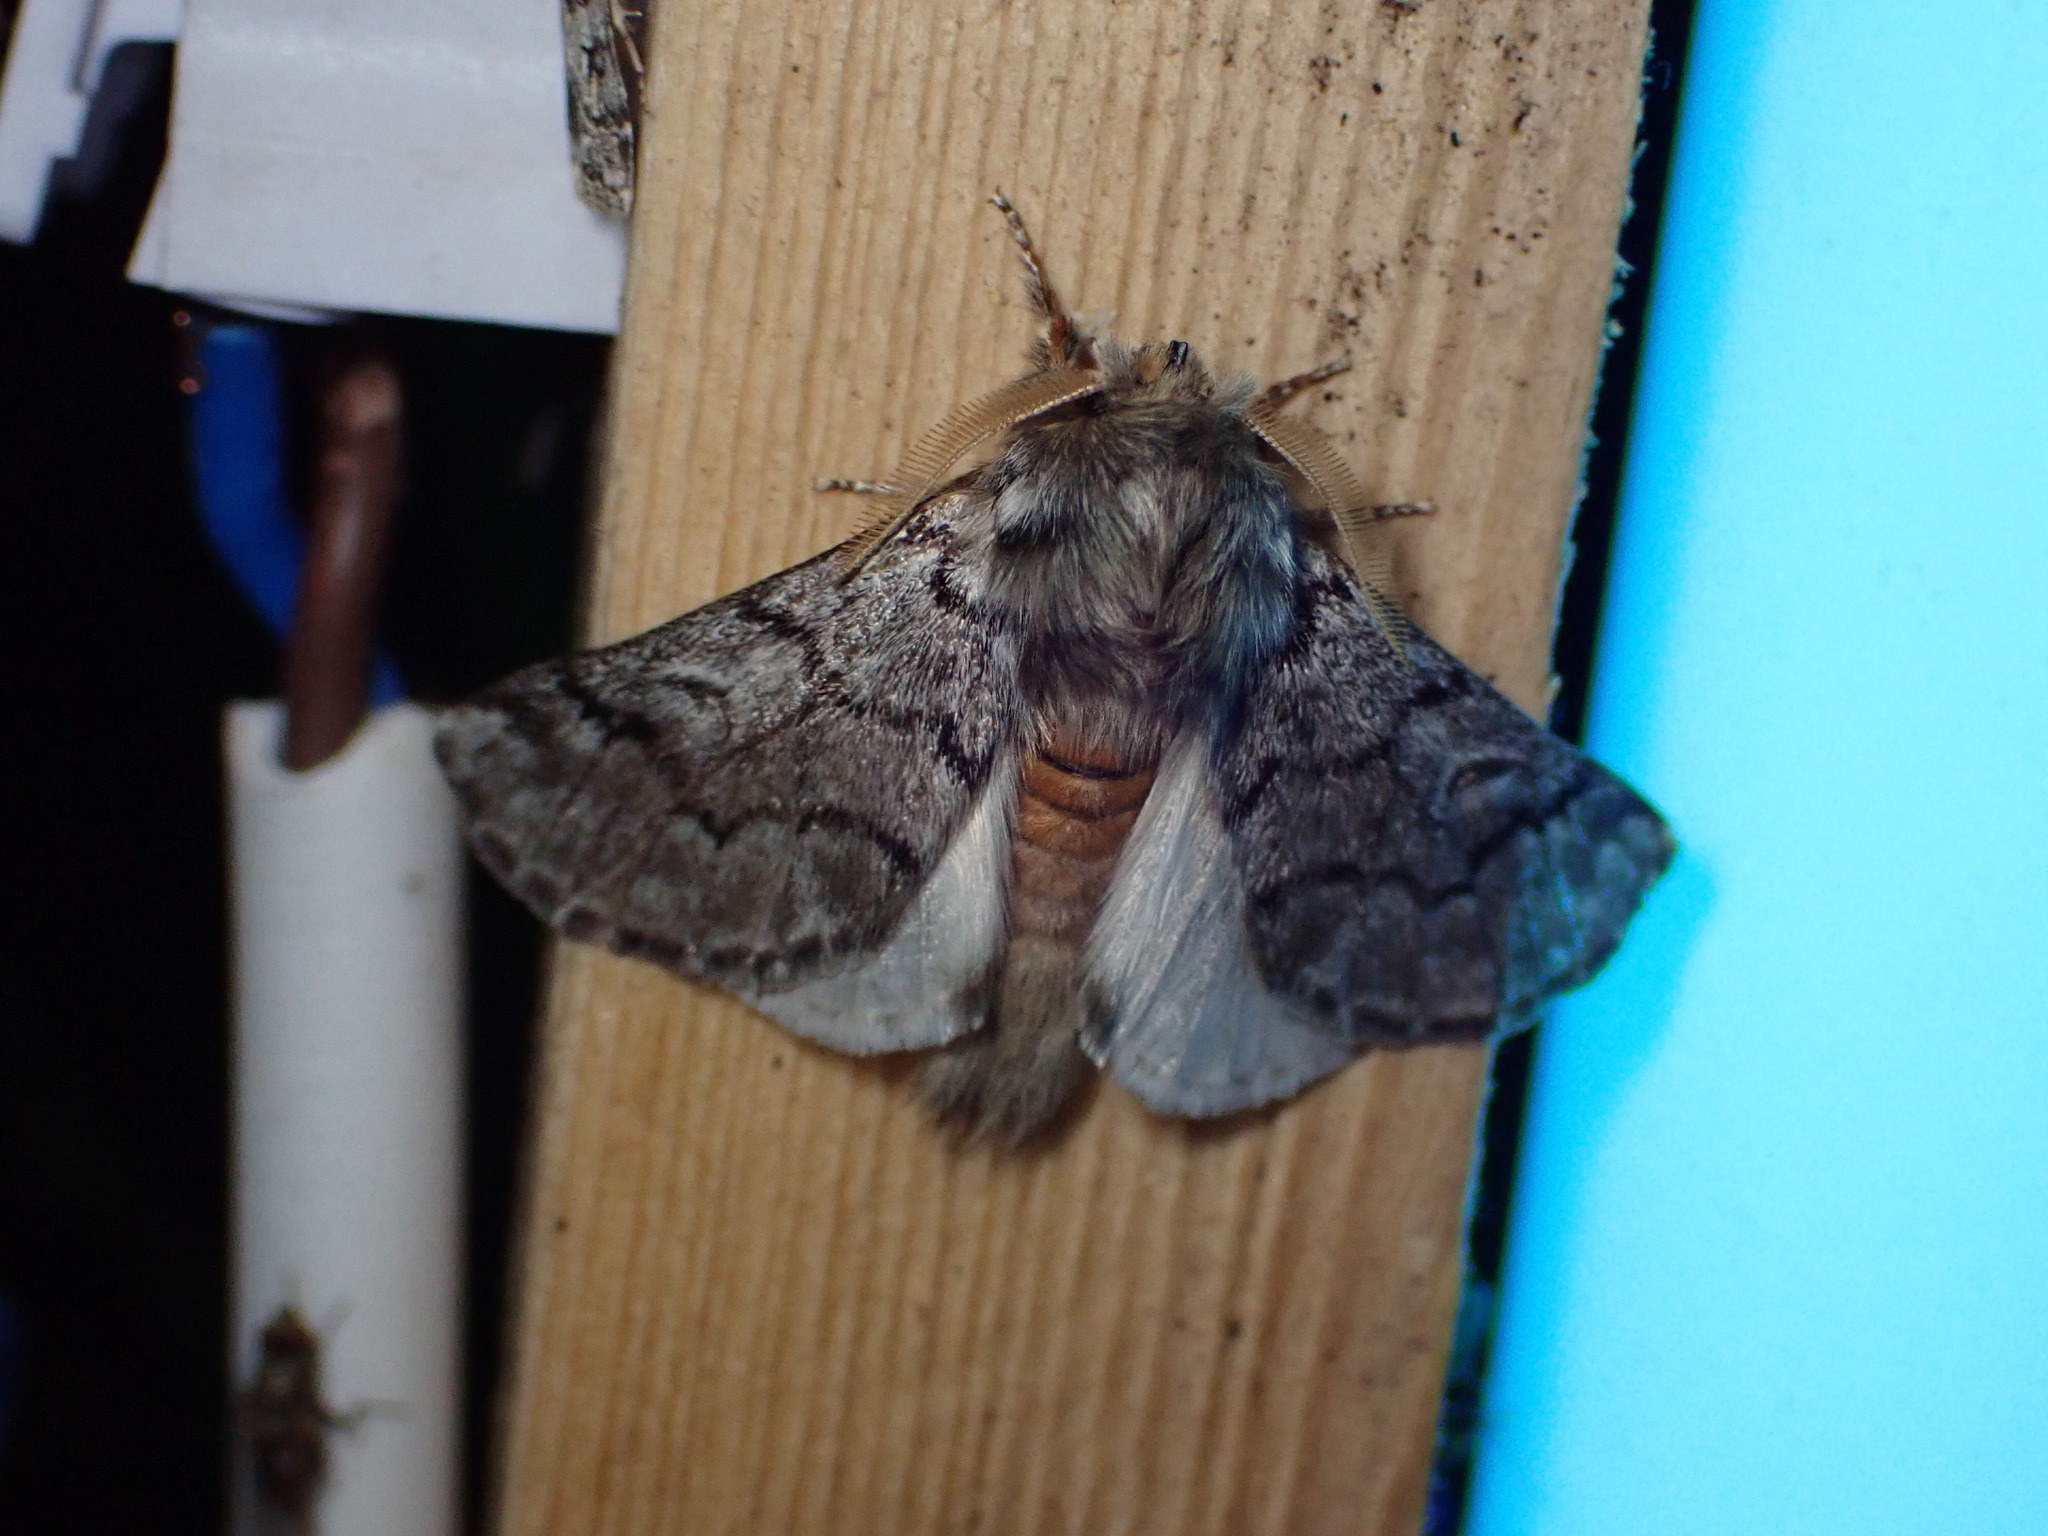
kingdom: Animalia
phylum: Arthropoda
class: Insecta
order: Lepidoptera
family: Notodontidae
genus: Thaumetopoea
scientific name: Thaumetopoea pityocampa
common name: Pine processionary
